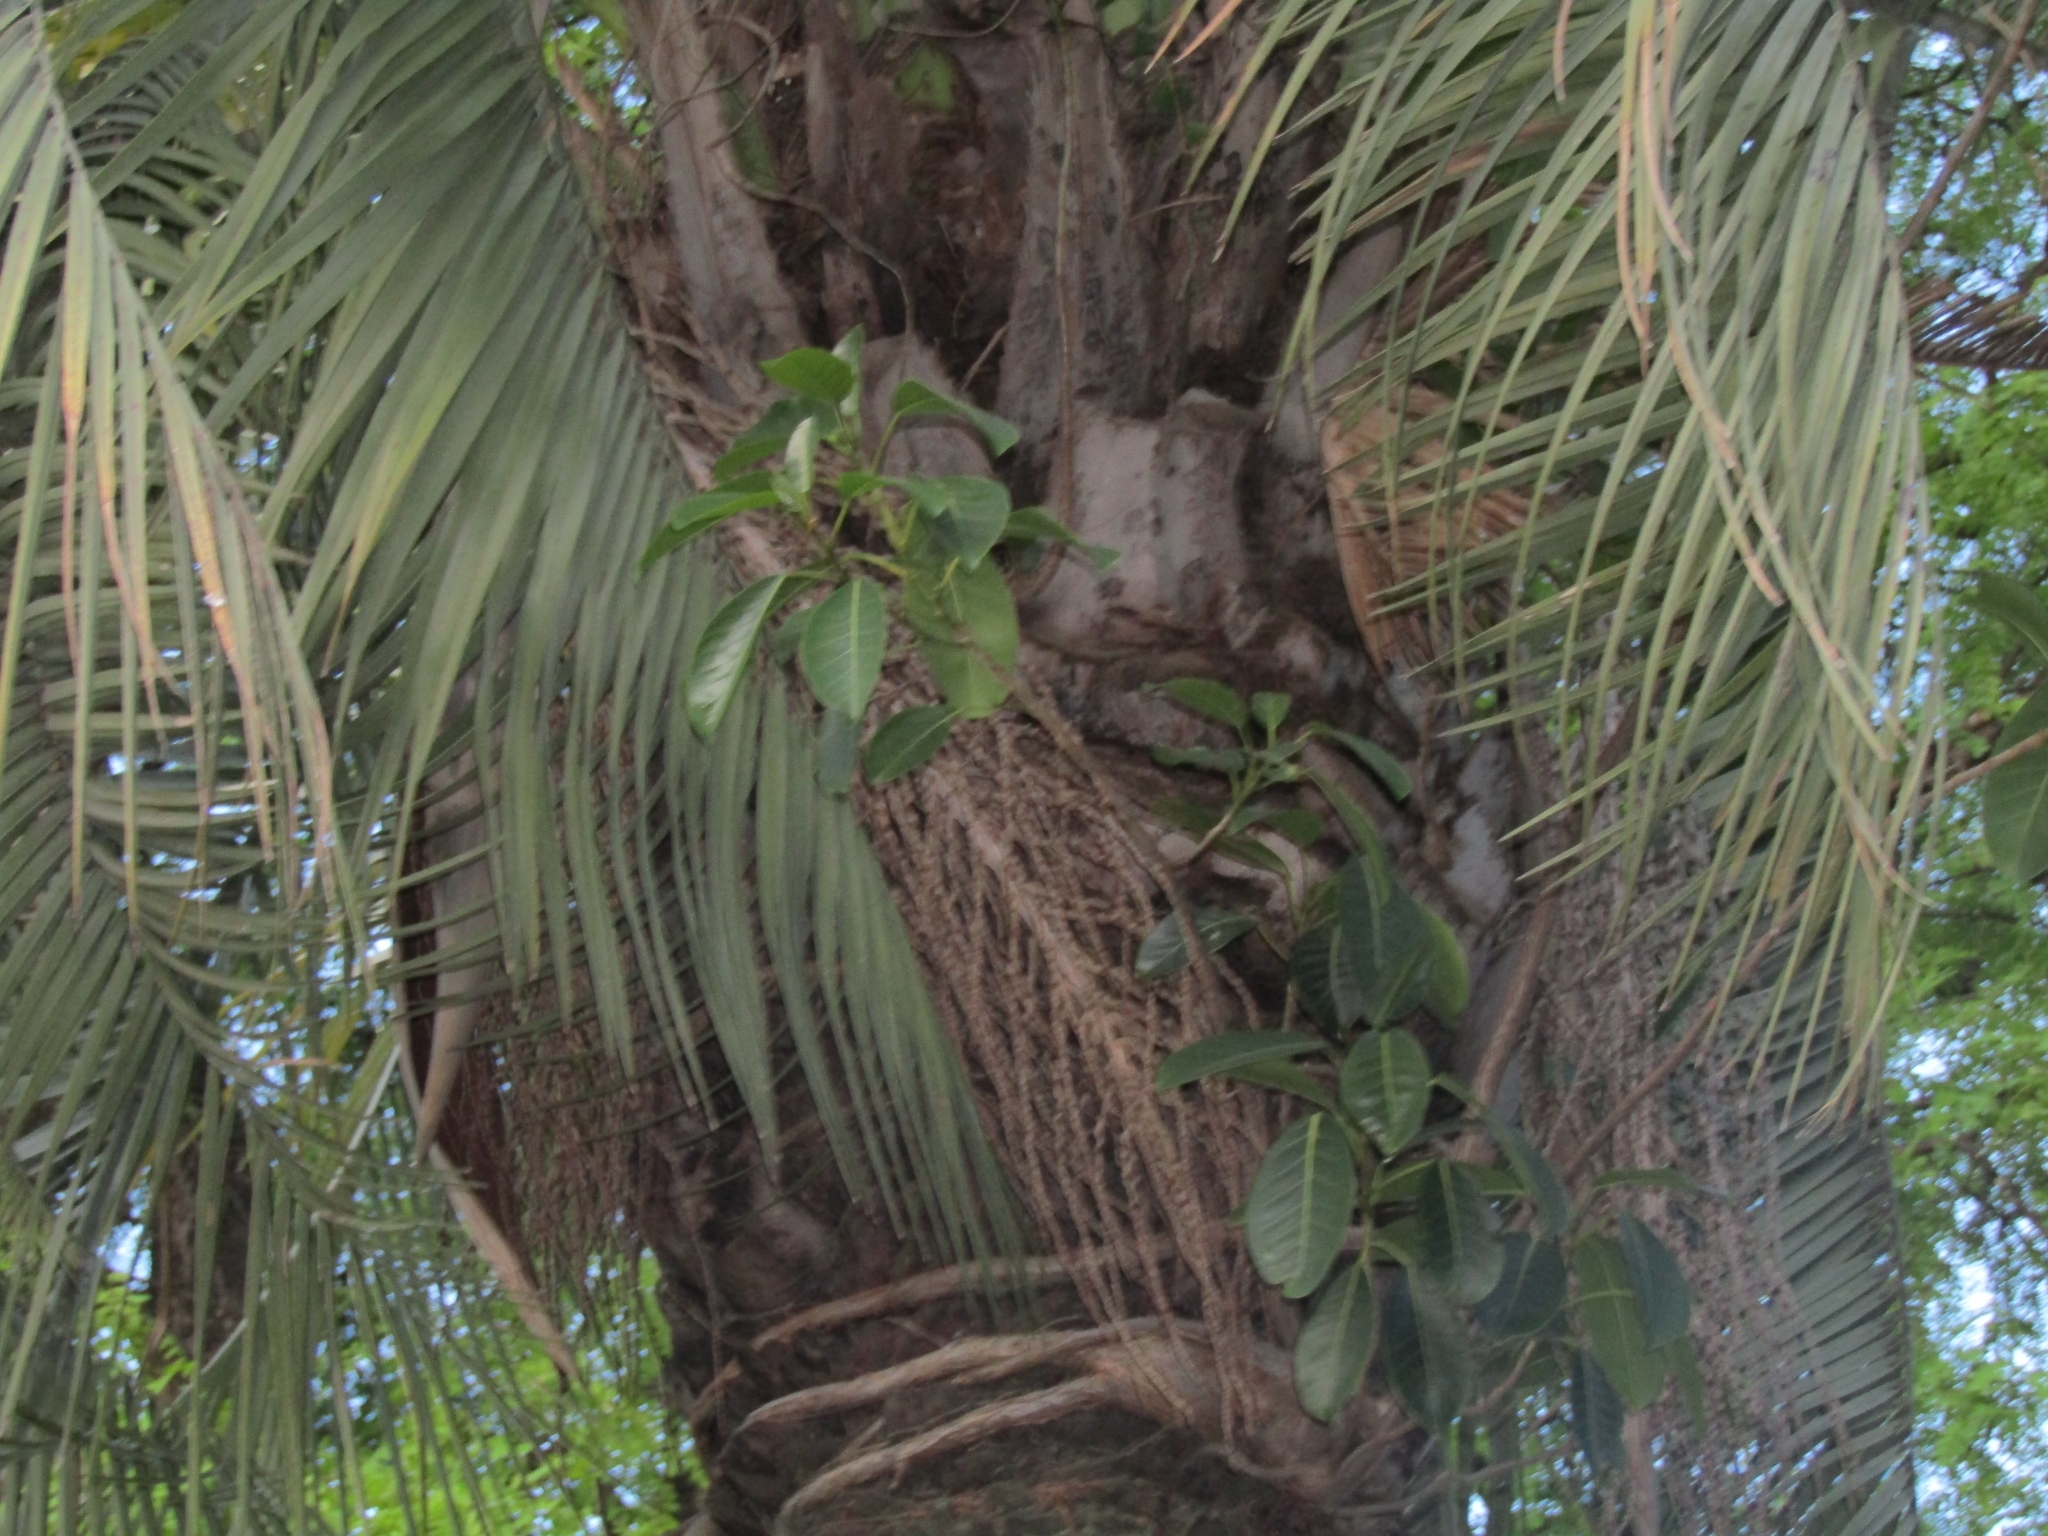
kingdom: Plantae
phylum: Tracheophyta
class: Magnoliopsida
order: Rosales
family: Moraceae
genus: Ficus
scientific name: Ficus luschnathiana
